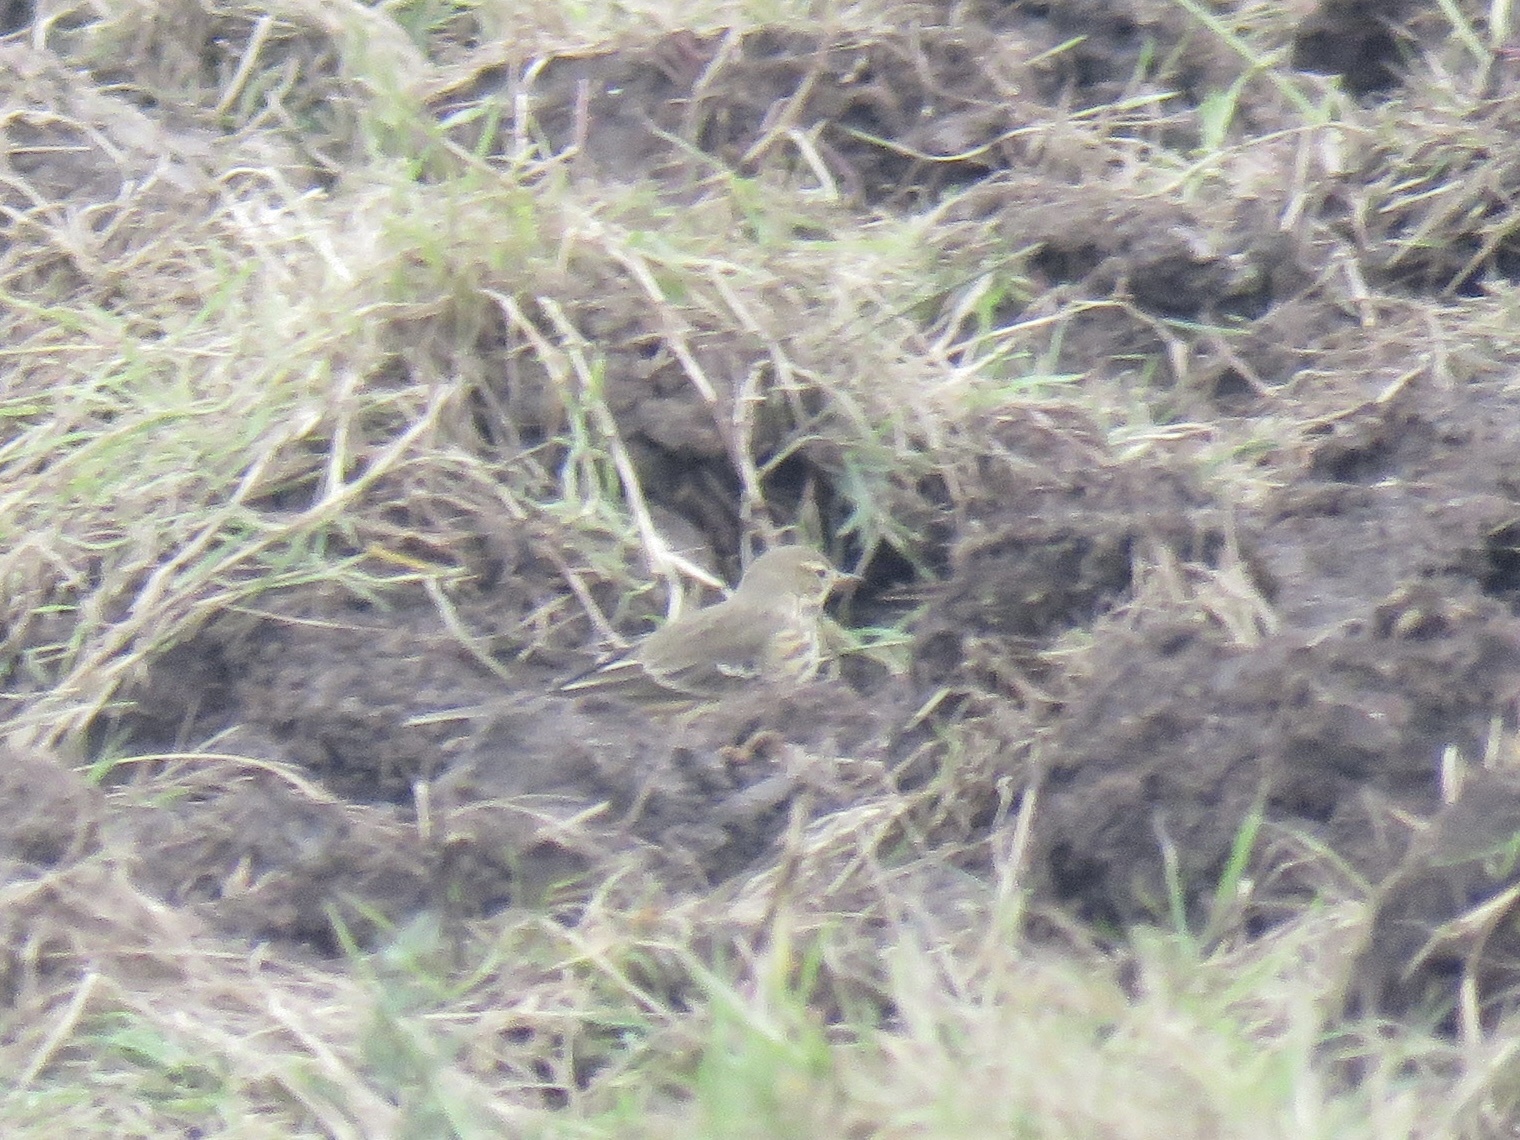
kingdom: Animalia
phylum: Chordata
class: Aves
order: Passeriformes
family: Motacillidae
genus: Anthus
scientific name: Anthus rubescens
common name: Buff-bellied pipit
